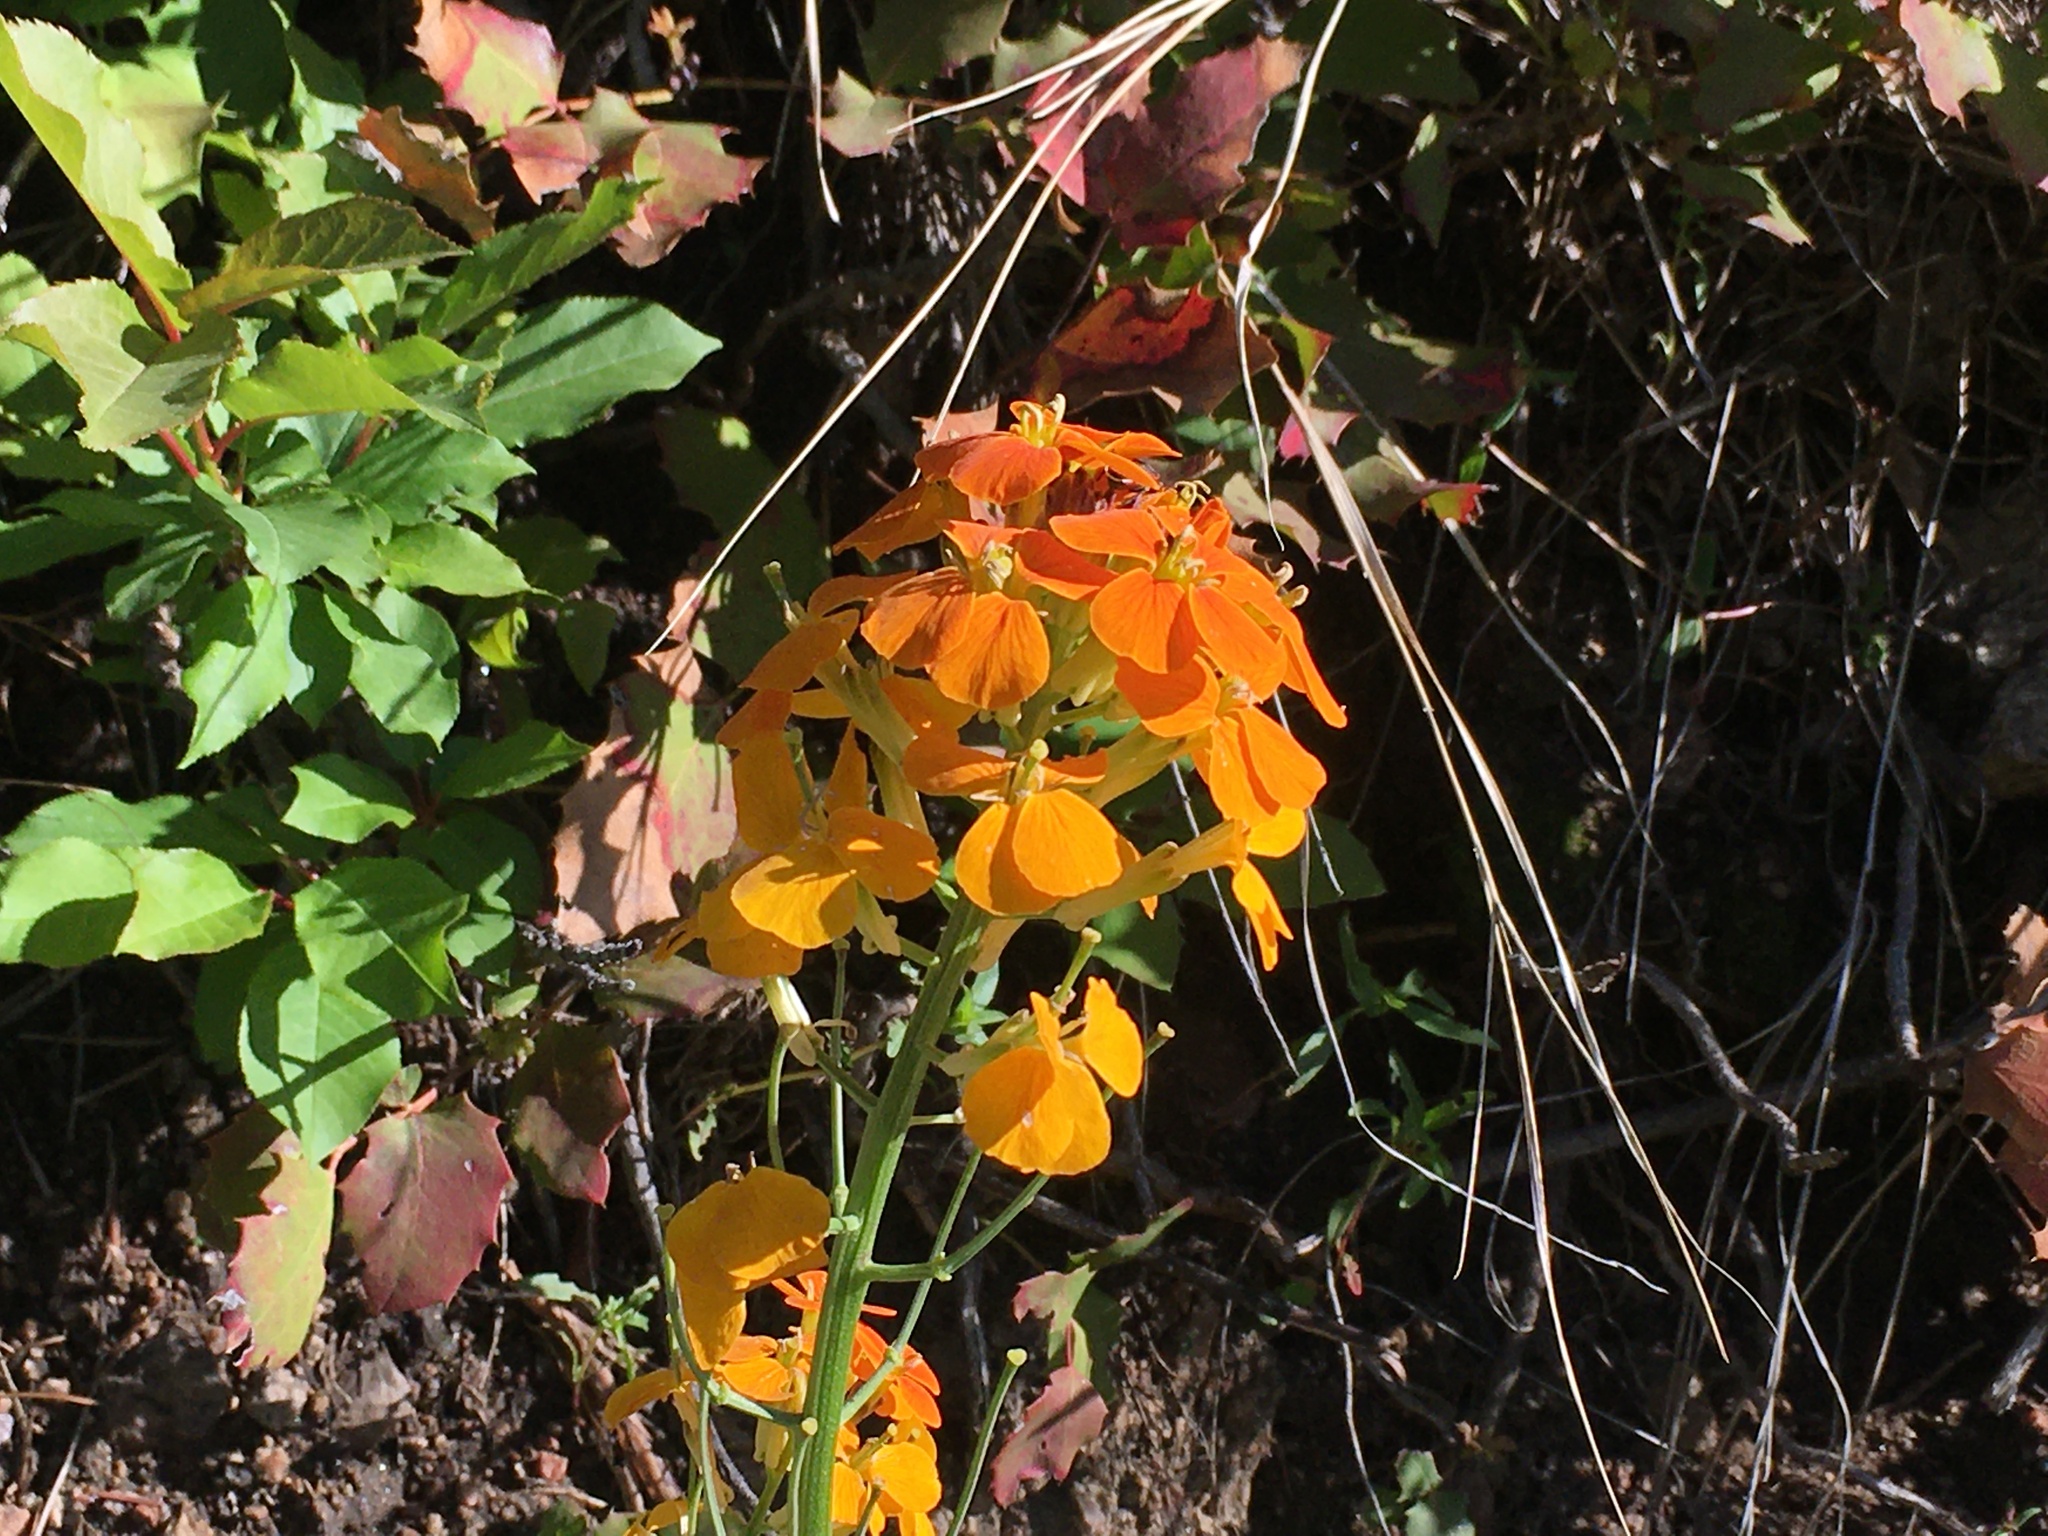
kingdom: Plantae
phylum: Tracheophyta
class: Magnoliopsida
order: Brassicales
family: Brassicaceae
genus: Erysimum
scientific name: Erysimum capitatum
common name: Western wallflower
